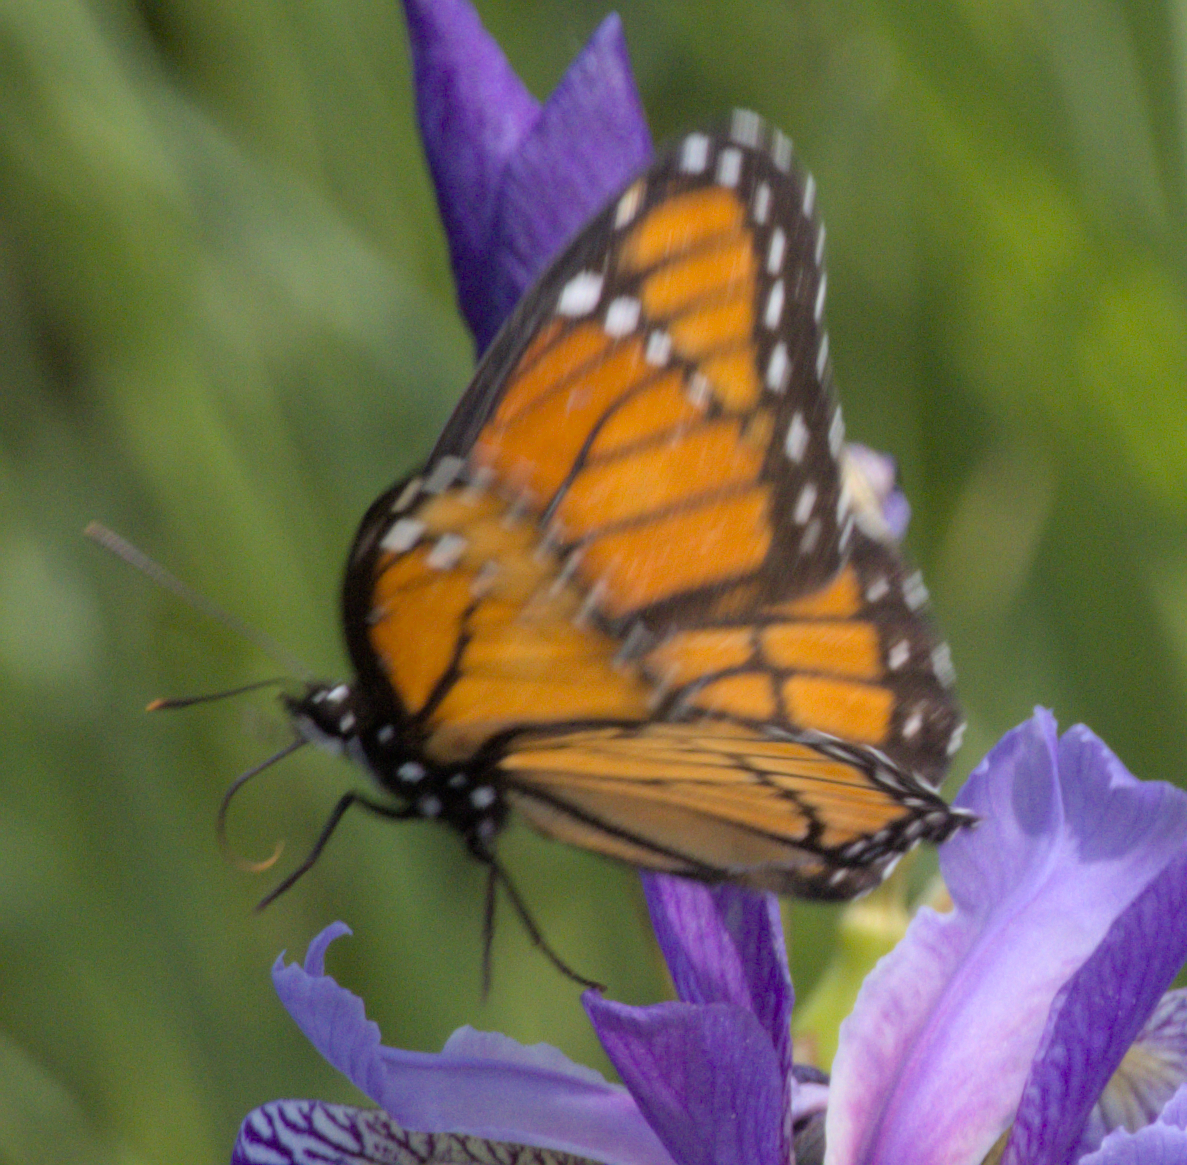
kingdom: Animalia
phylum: Arthropoda
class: Insecta
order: Lepidoptera
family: Nymphalidae
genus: Limenitis
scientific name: Limenitis archippus
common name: Viceroy
